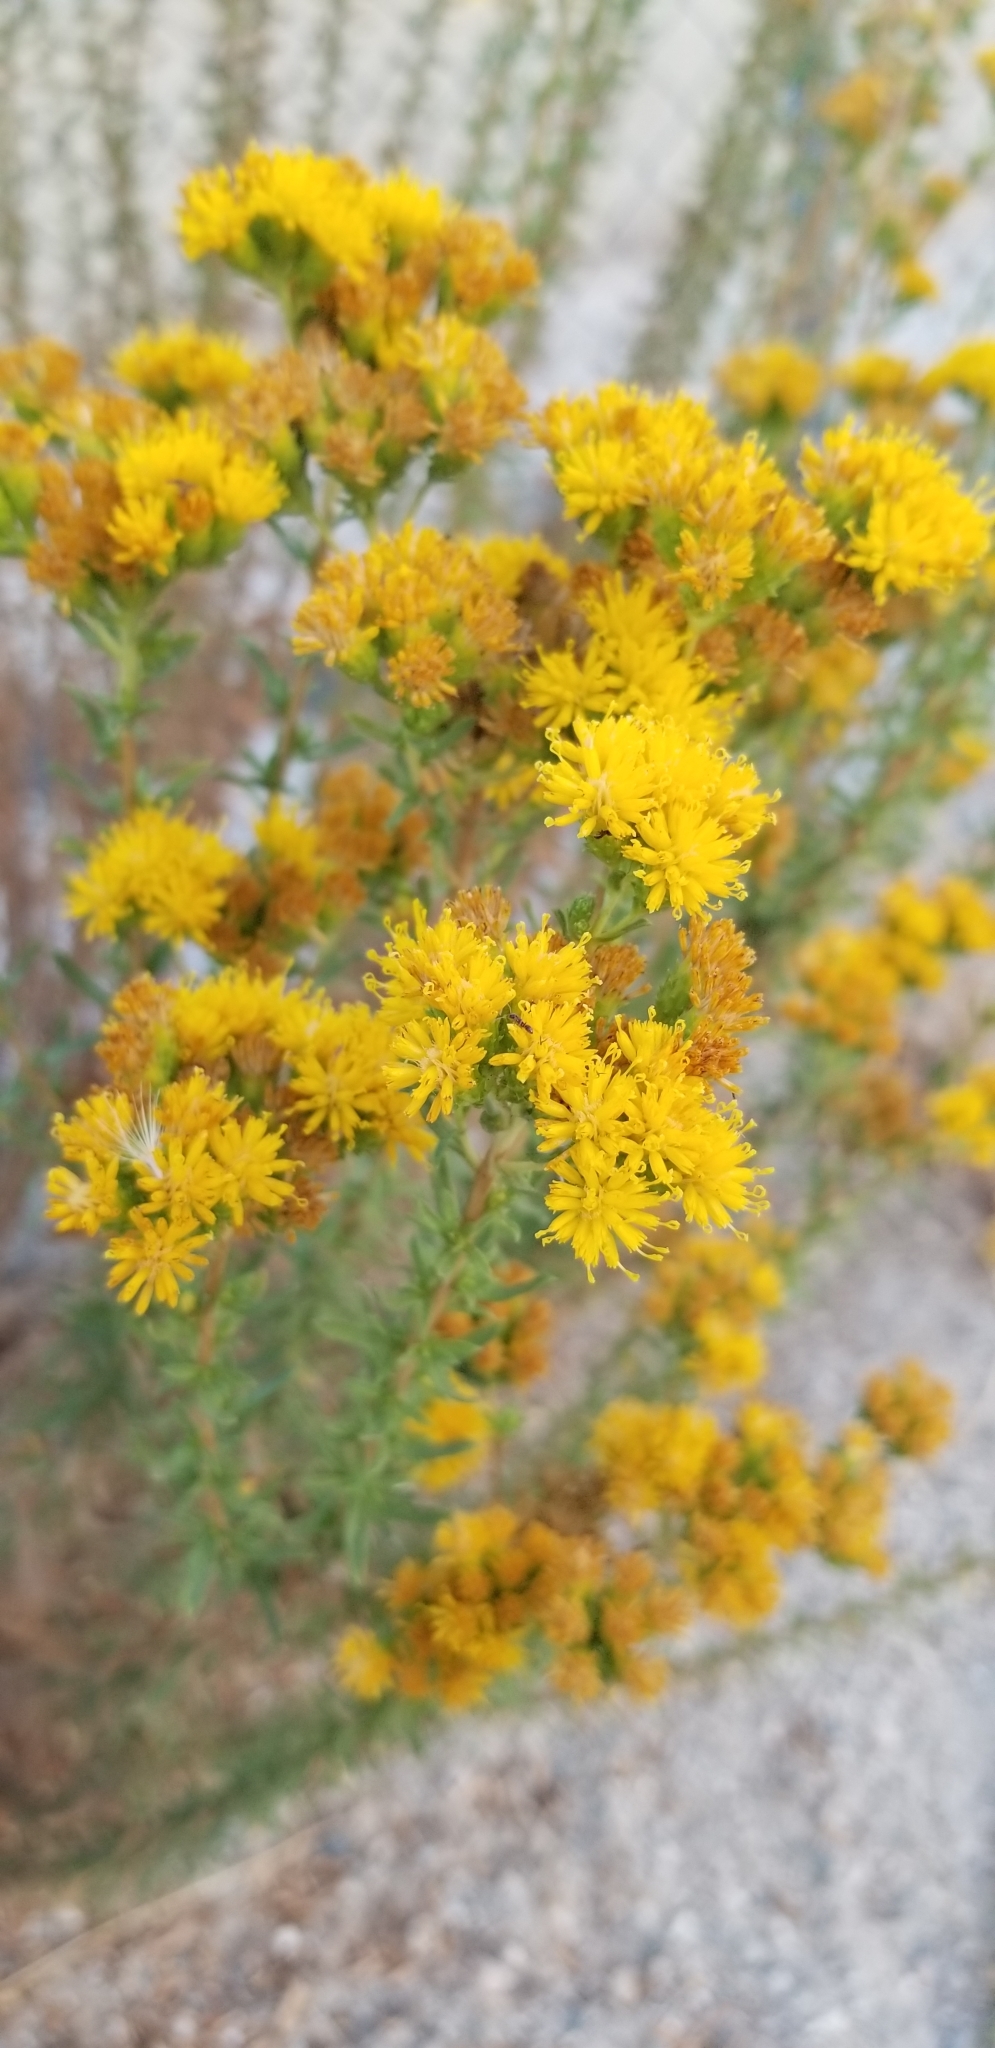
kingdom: Plantae
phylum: Tracheophyta
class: Magnoliopsida
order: Asterales
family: Asteraceae
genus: Isocoma
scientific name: Isocoma menziesii
